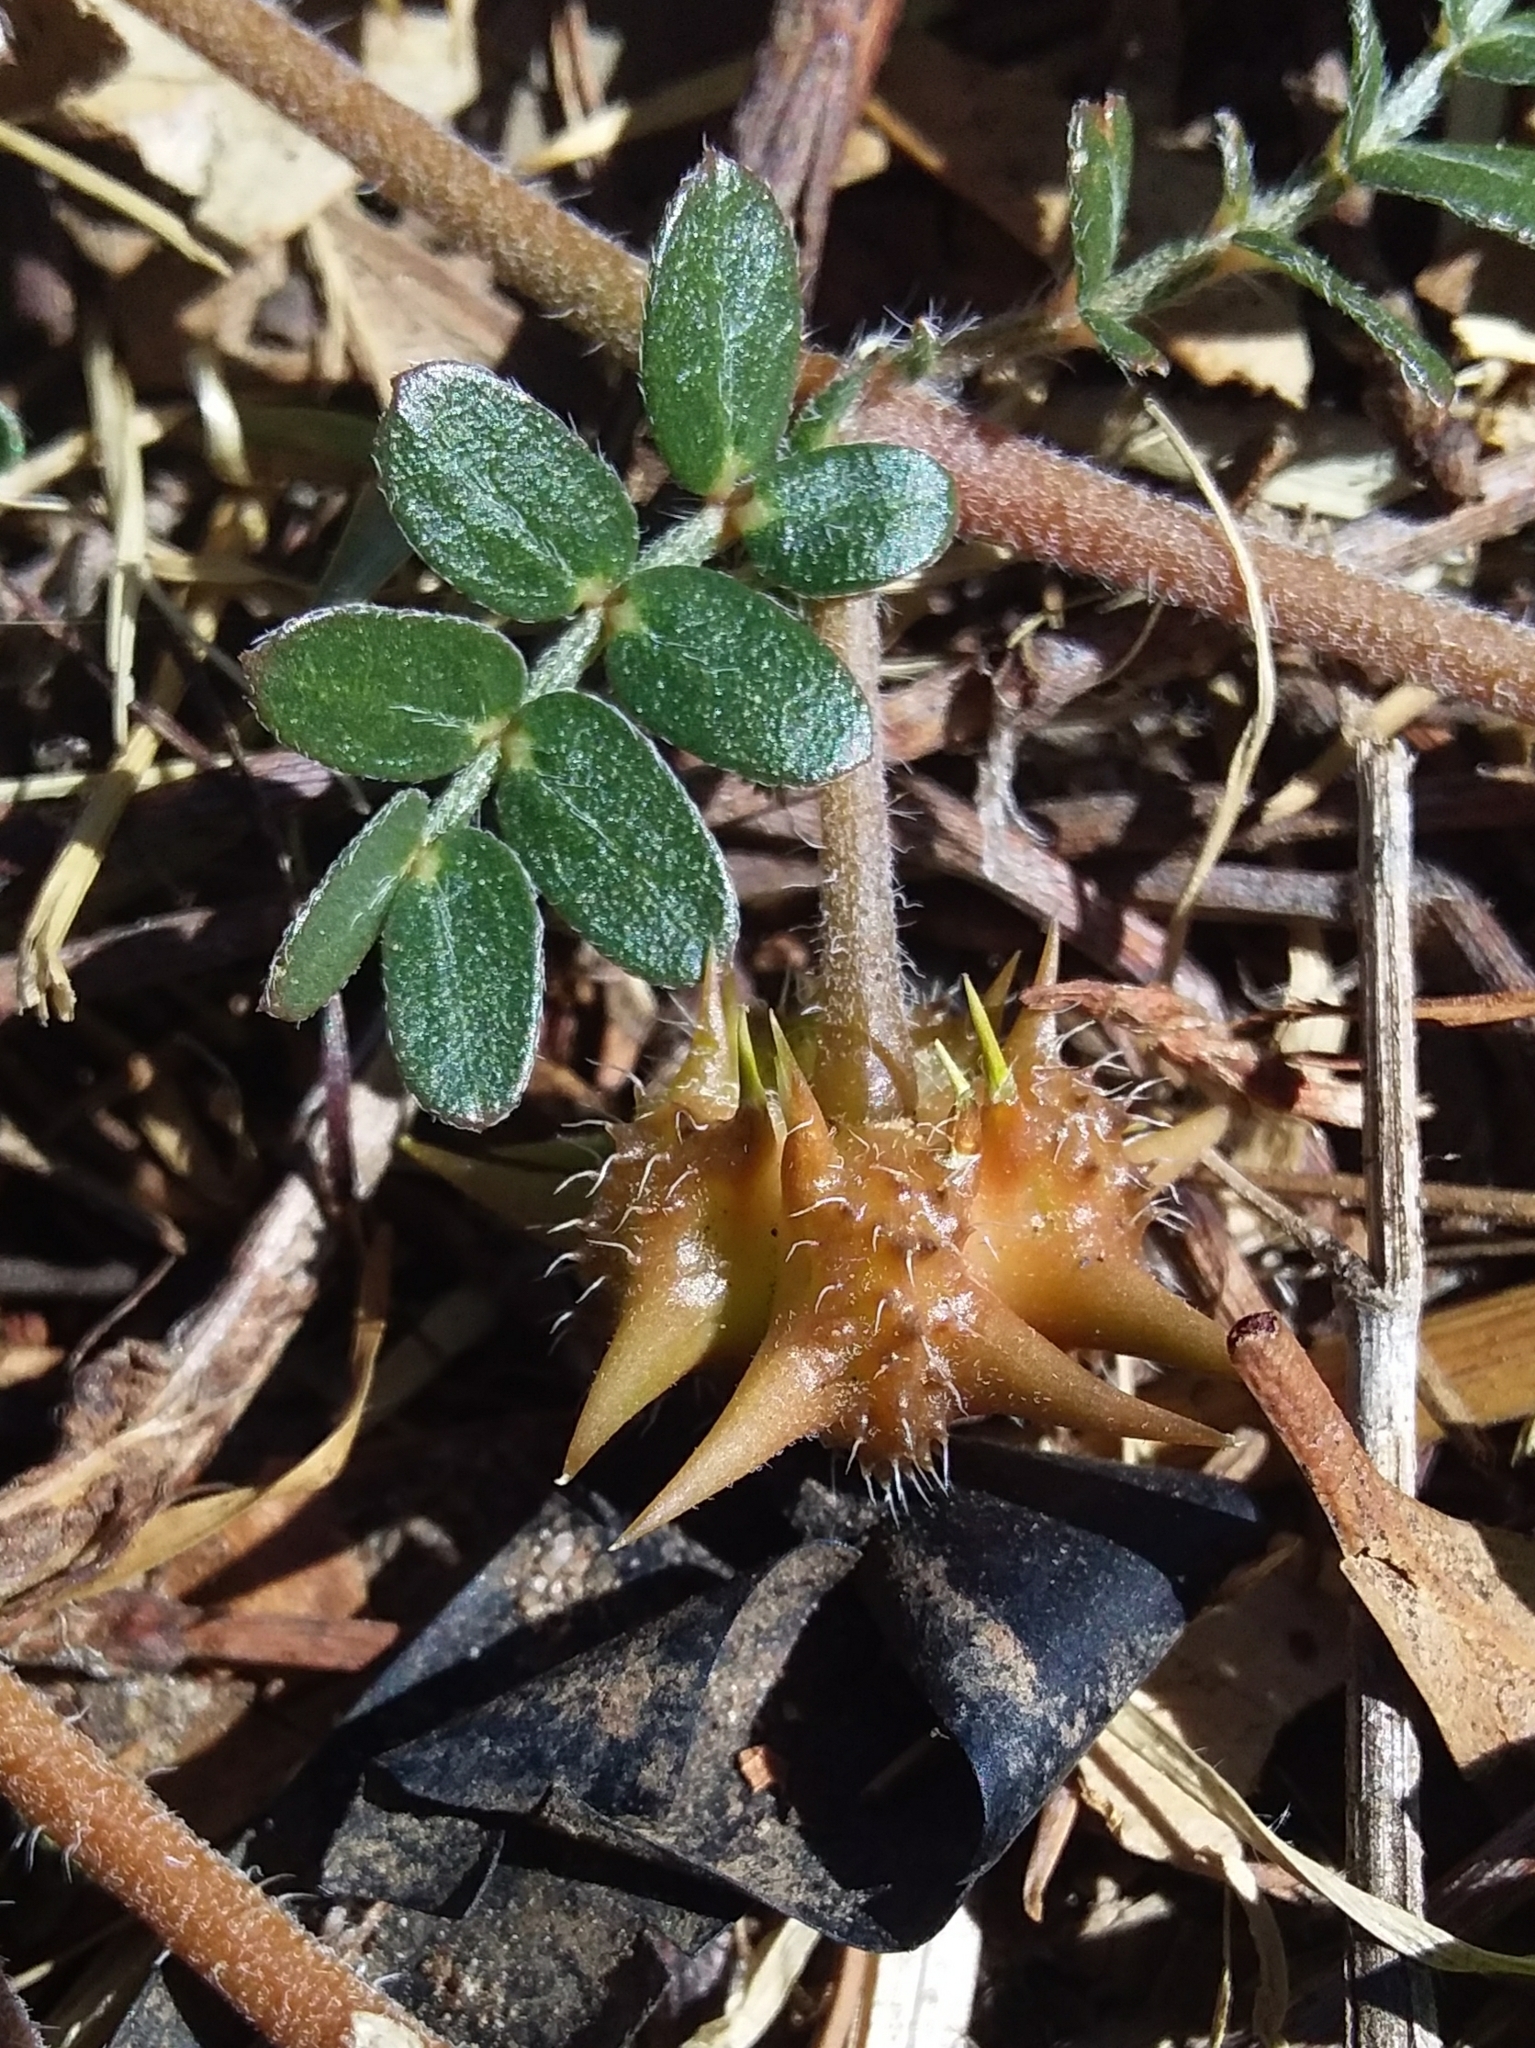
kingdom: Plantae
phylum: Tracheophyta
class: Magnoliopsida
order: Zygophyllales
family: Zygophyllaceae
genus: Tribulus
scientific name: Tribulus terrestris
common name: Puncturevine
